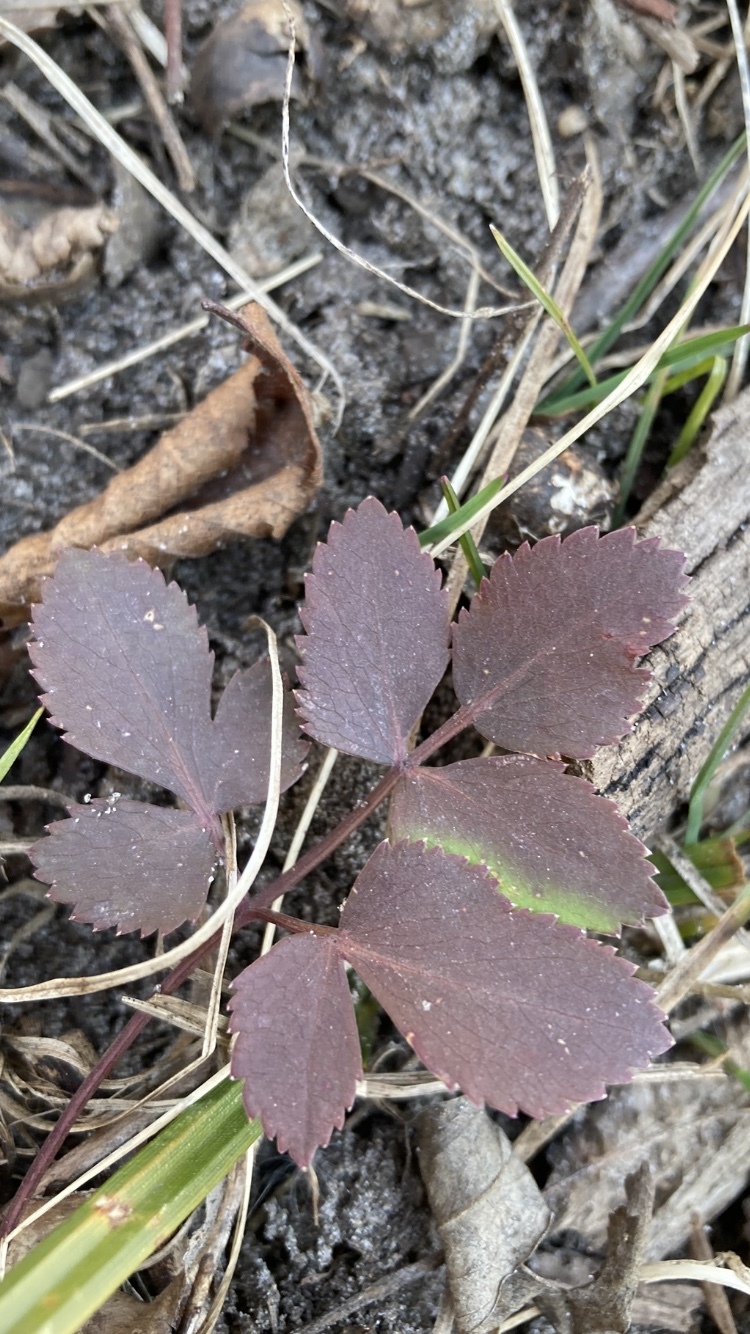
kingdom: Plantae
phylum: Tracheophyta
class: Magnoliopsida
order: Apiales
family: Apiaceae
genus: Zizia
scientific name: Zizia aurea
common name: Golden alexanders
